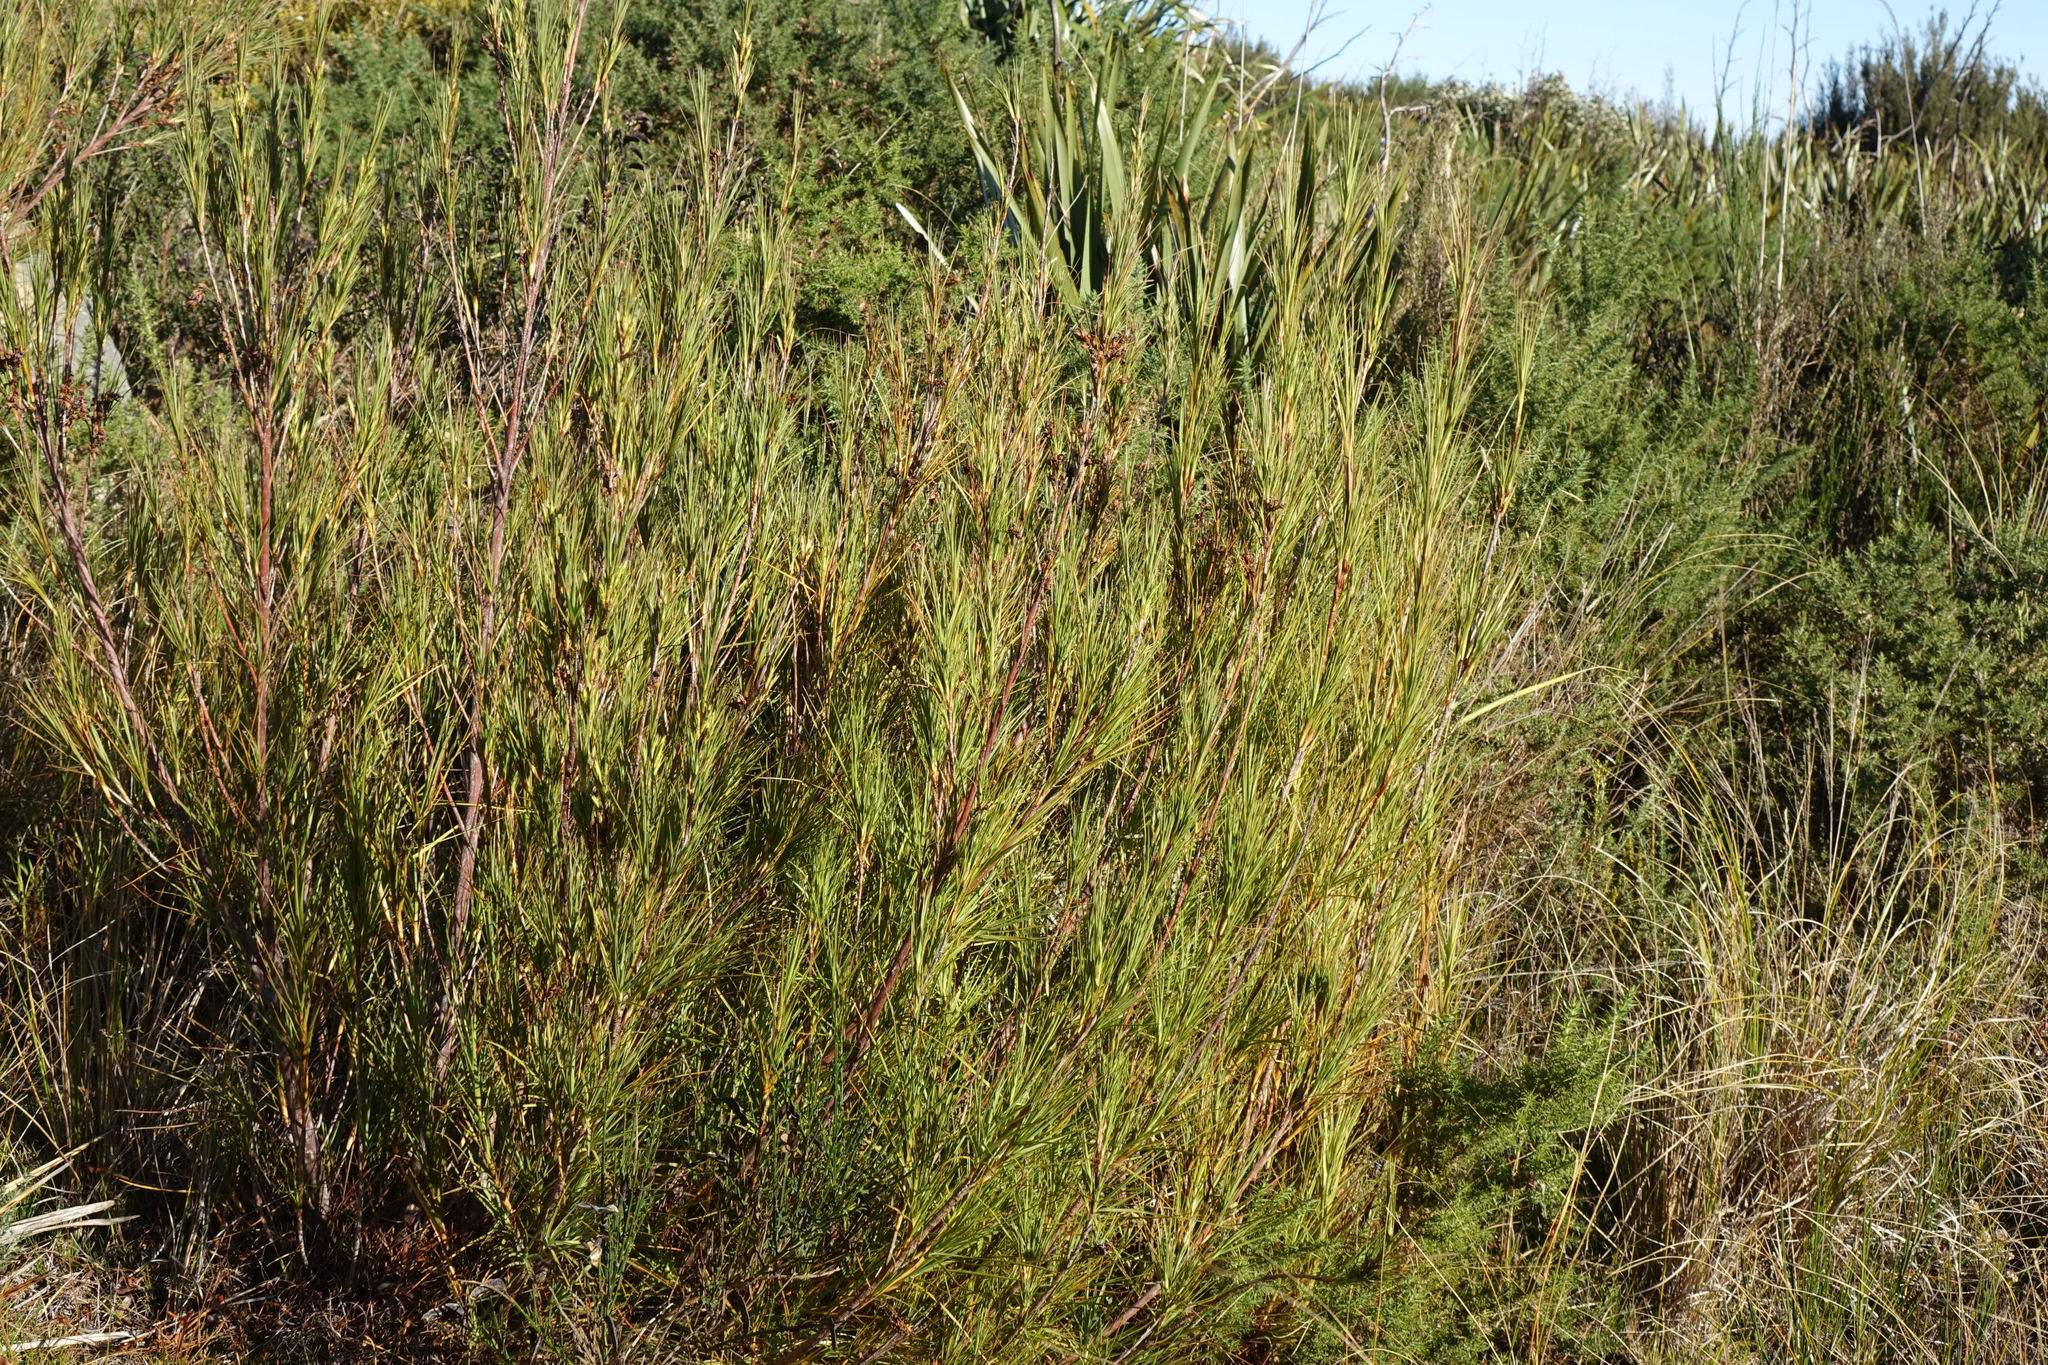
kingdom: Plantae
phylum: Tracheophyta
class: Magnoliopsida
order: Ericales
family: Ericaceae
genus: Dracophyllum
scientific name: Dracophyllum longifolium
